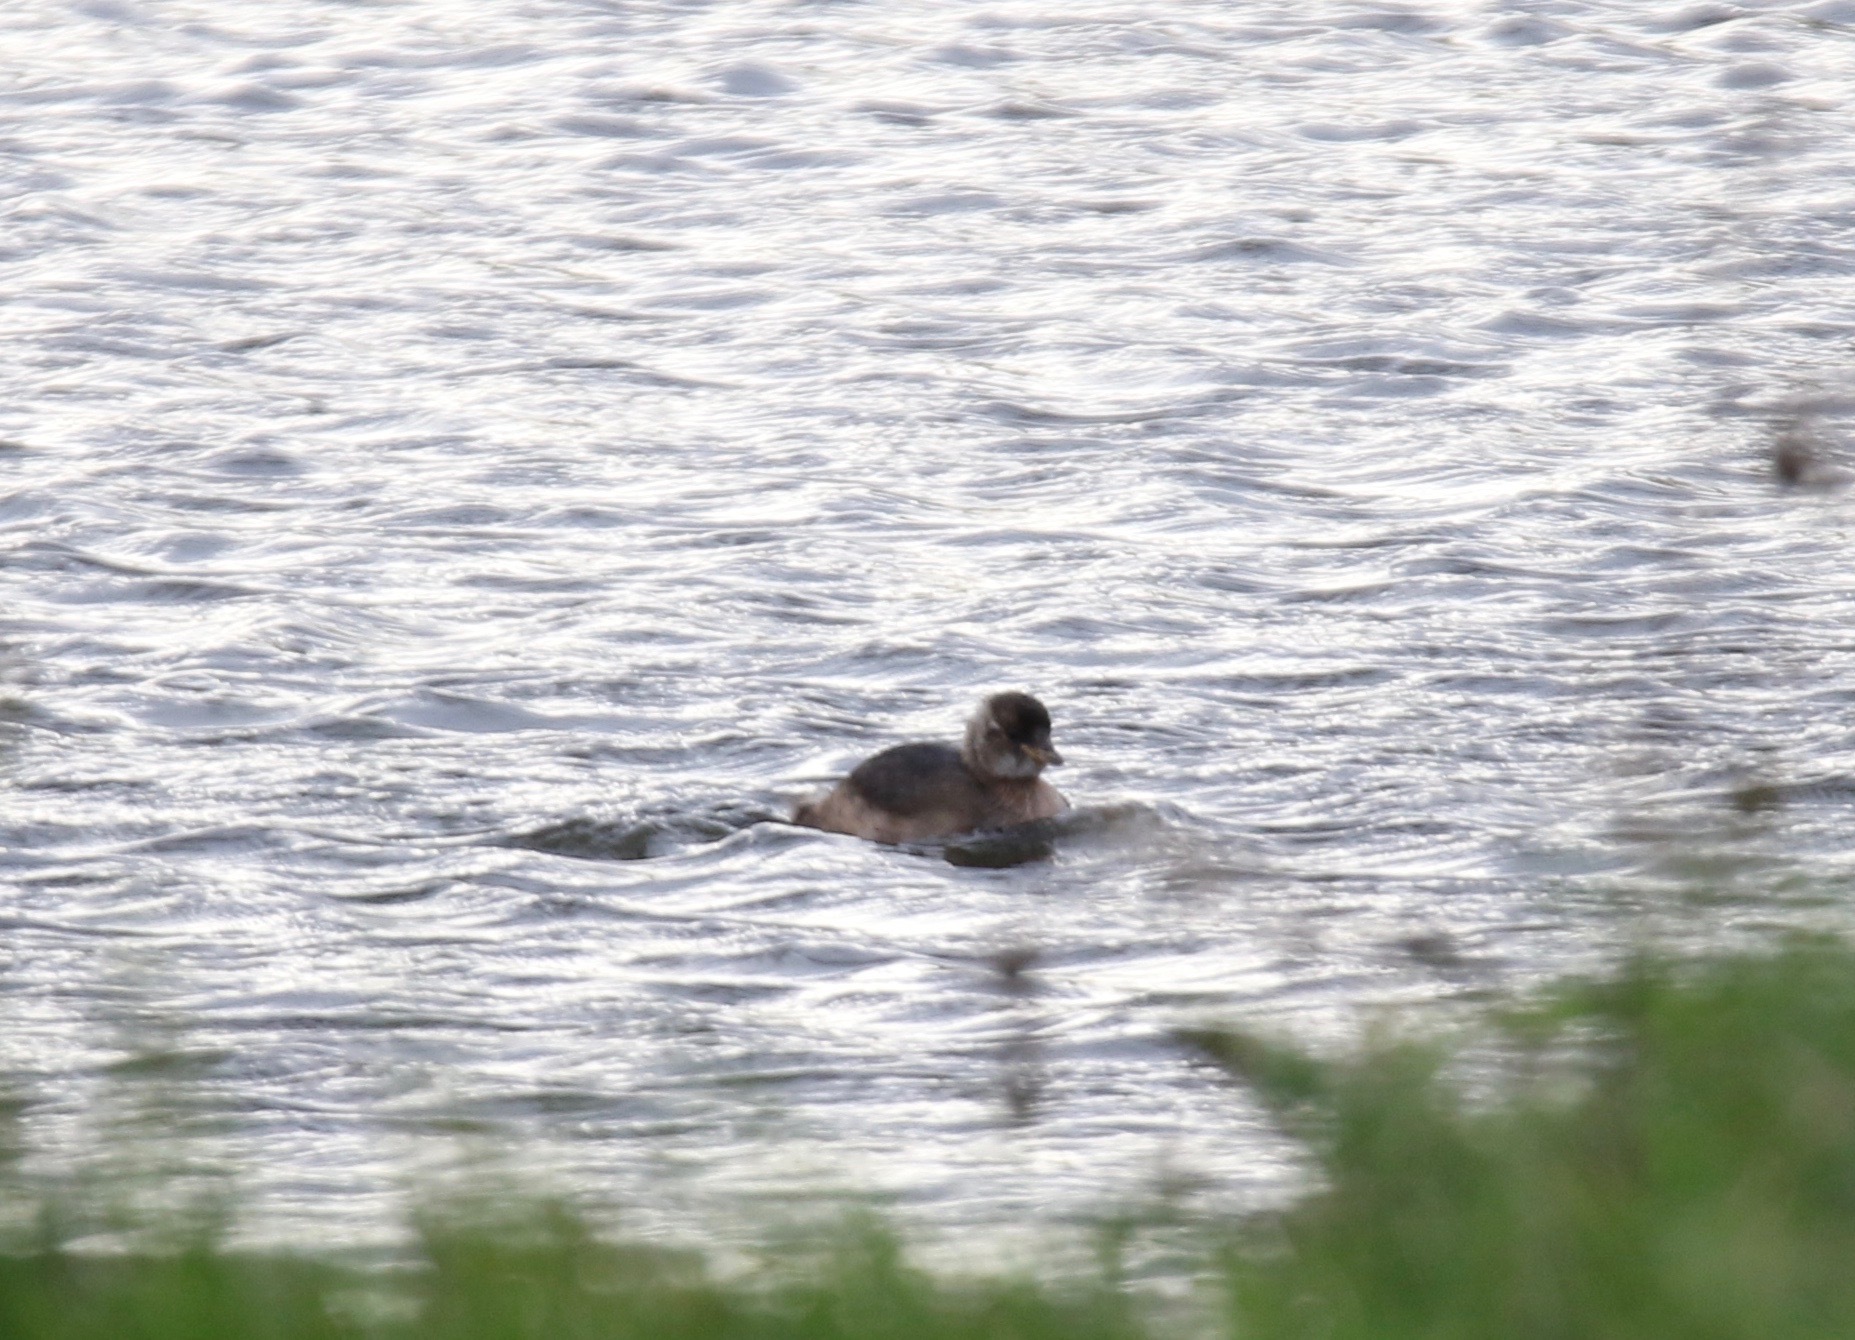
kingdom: Animalia
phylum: Chordata
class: Aves
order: Podicipediformes
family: Podicipedidae
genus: Tachybaptus
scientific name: Tachybaptus ruficollis
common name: Little grebe
